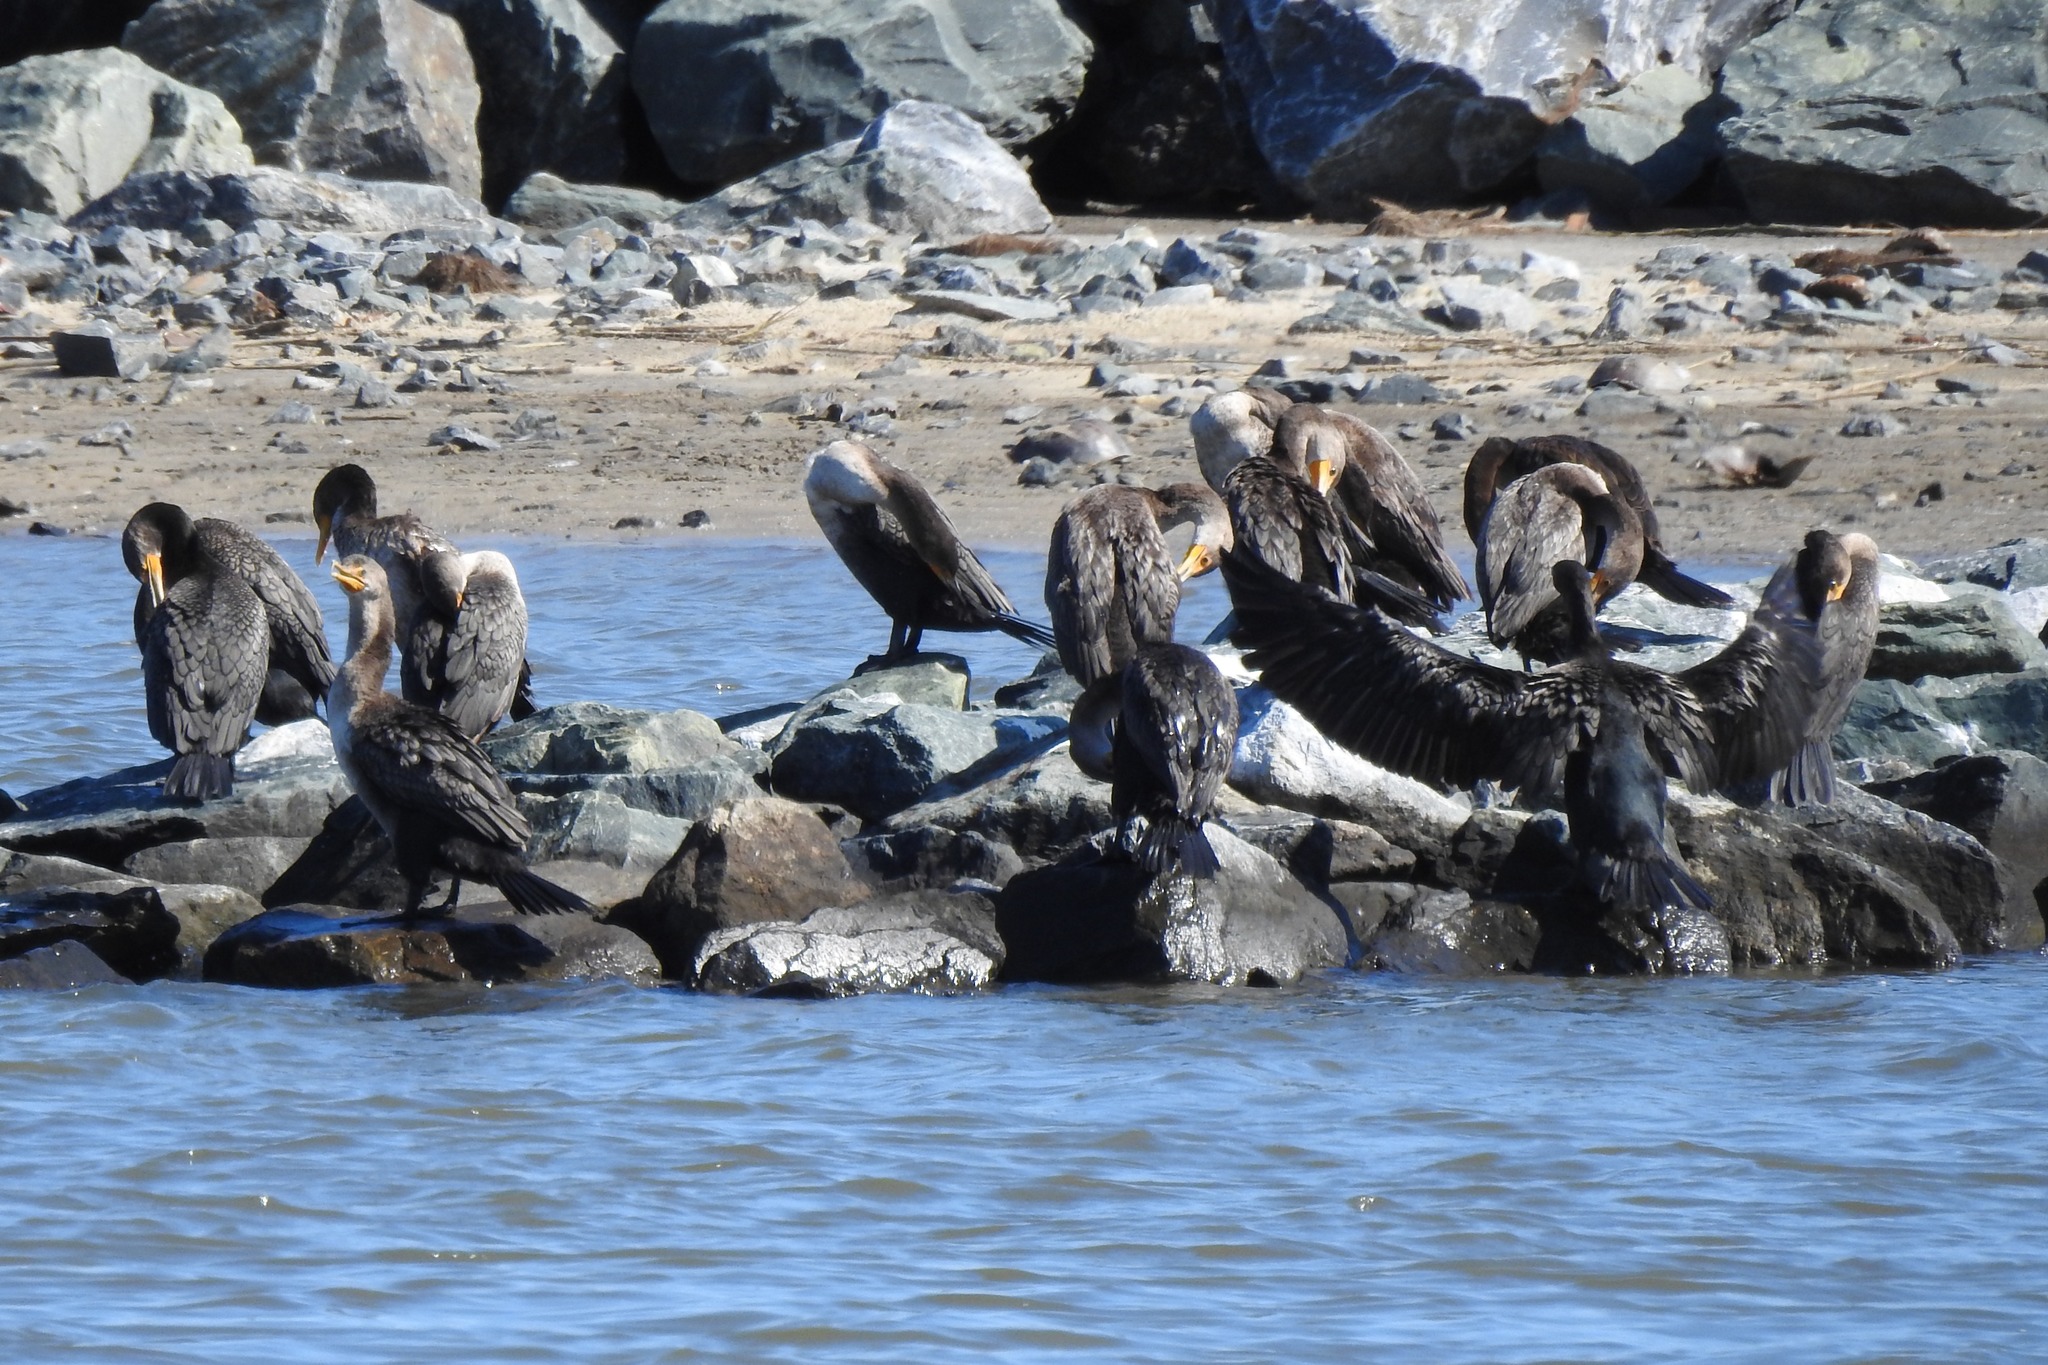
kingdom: Animalia
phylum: Chordata
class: Aves
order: Suliformes
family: Phalacrocoracidae
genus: Phalacrocorax
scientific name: Phalacrocorax auritus
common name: Double-crested cormorant
